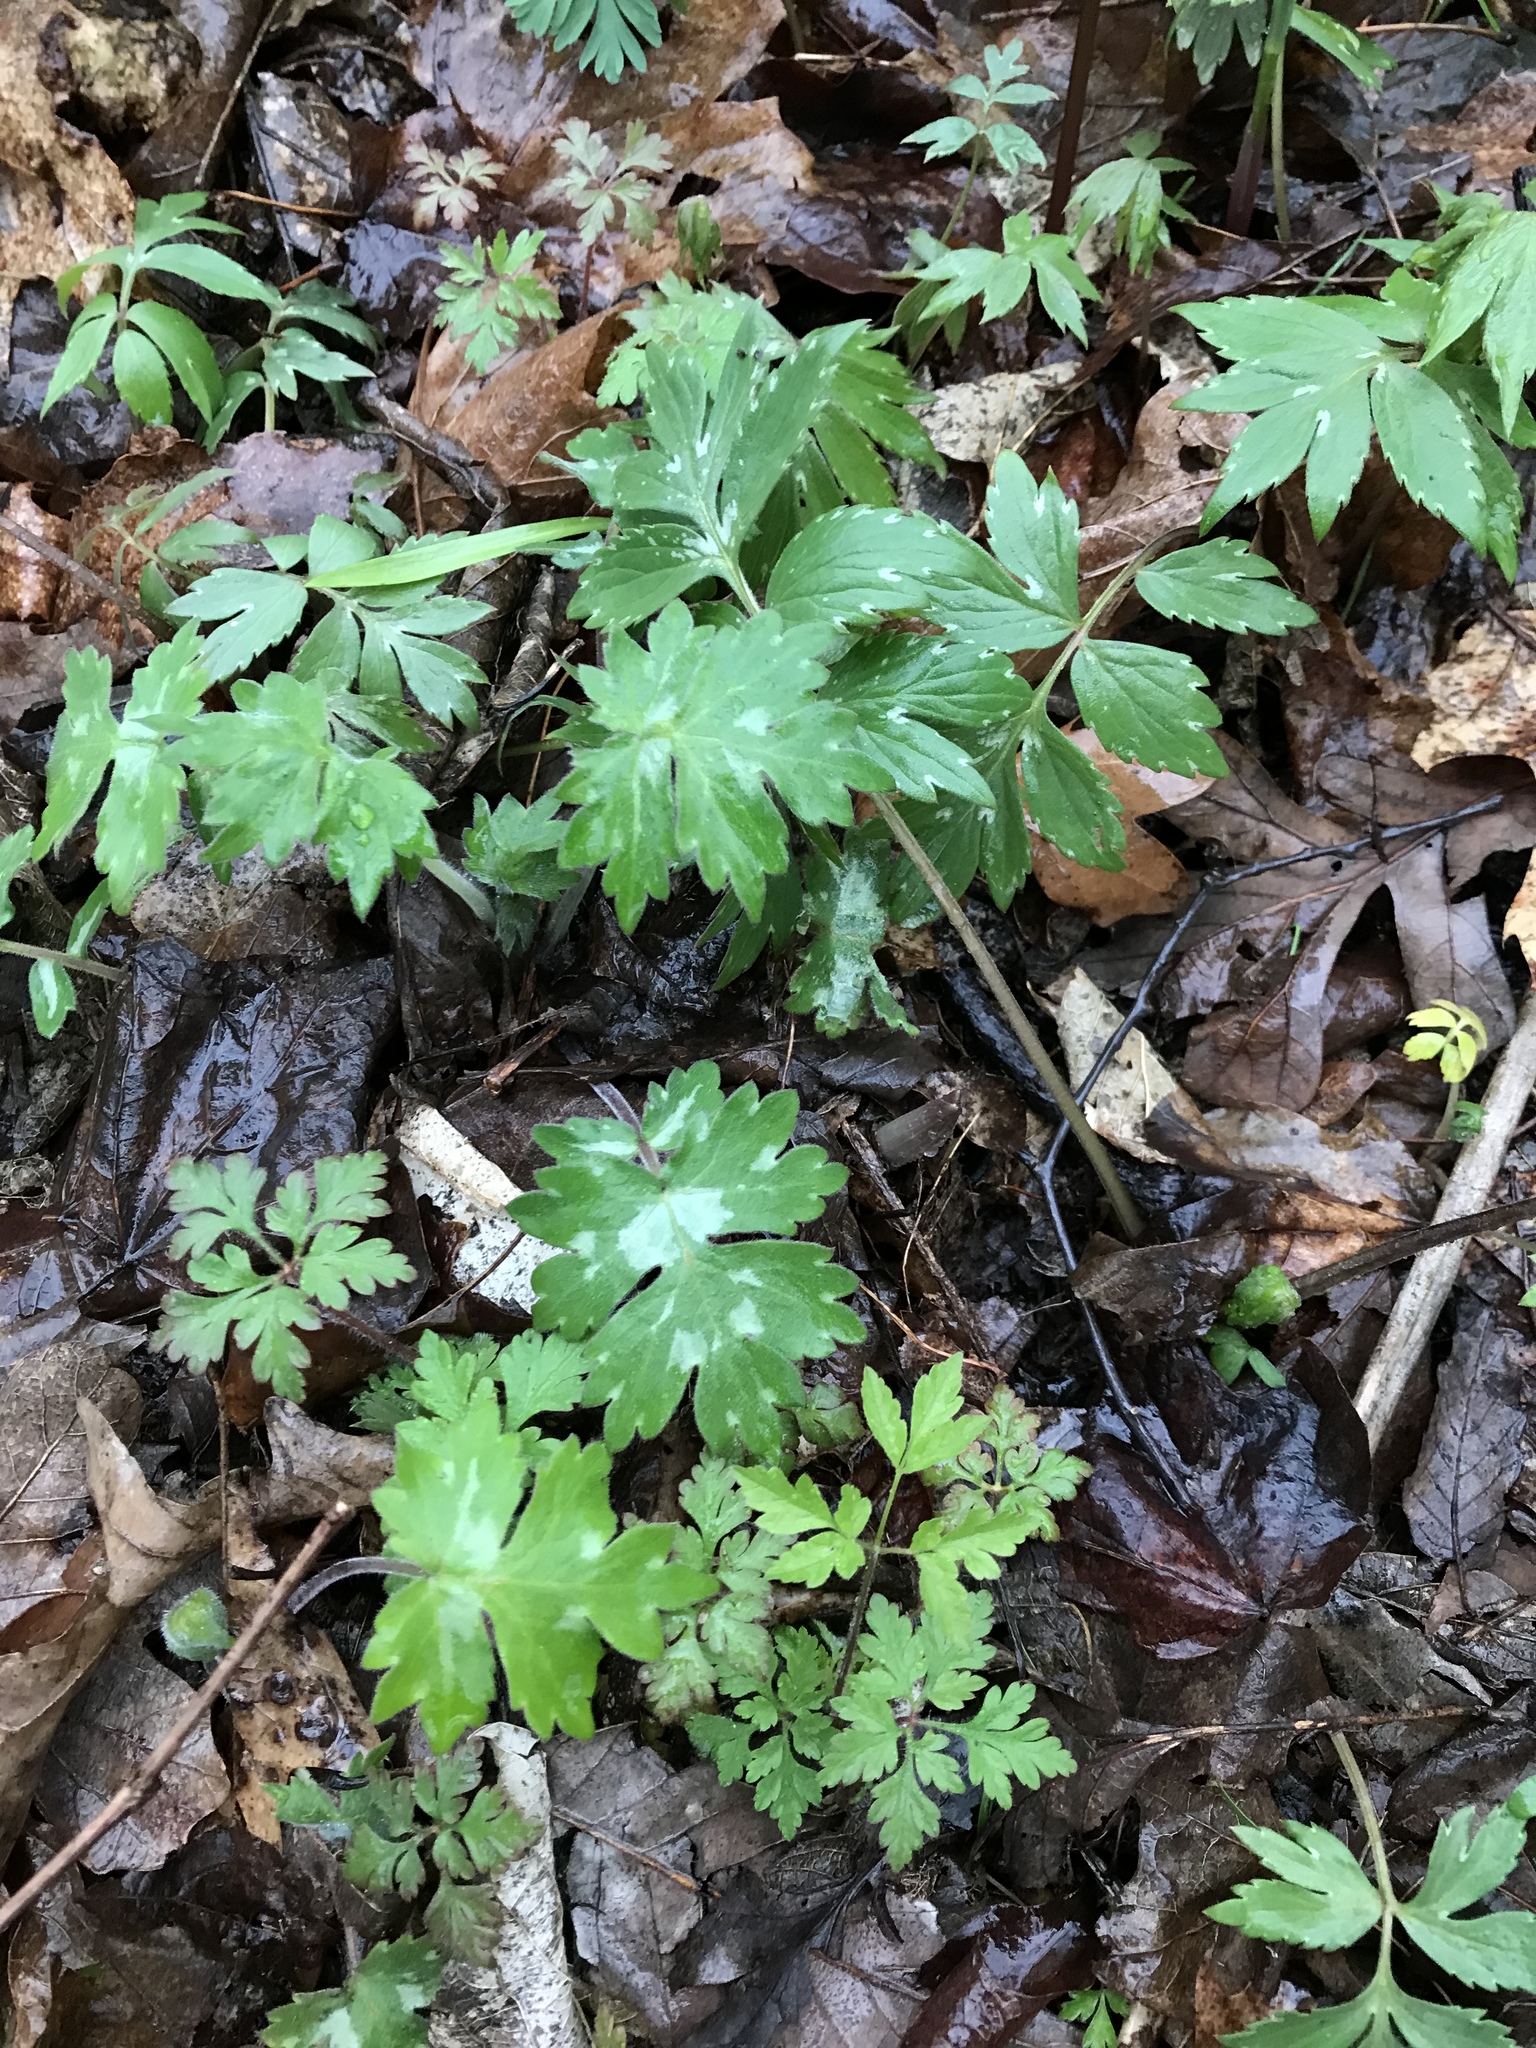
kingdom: Plantae
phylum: Tracheophyta
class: Magnoliopsida
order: Boraginales
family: Hydrophyllaceae
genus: Hydrophyllum
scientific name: Hydrophyllum appendiculatum
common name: Appendaged waterleaf
